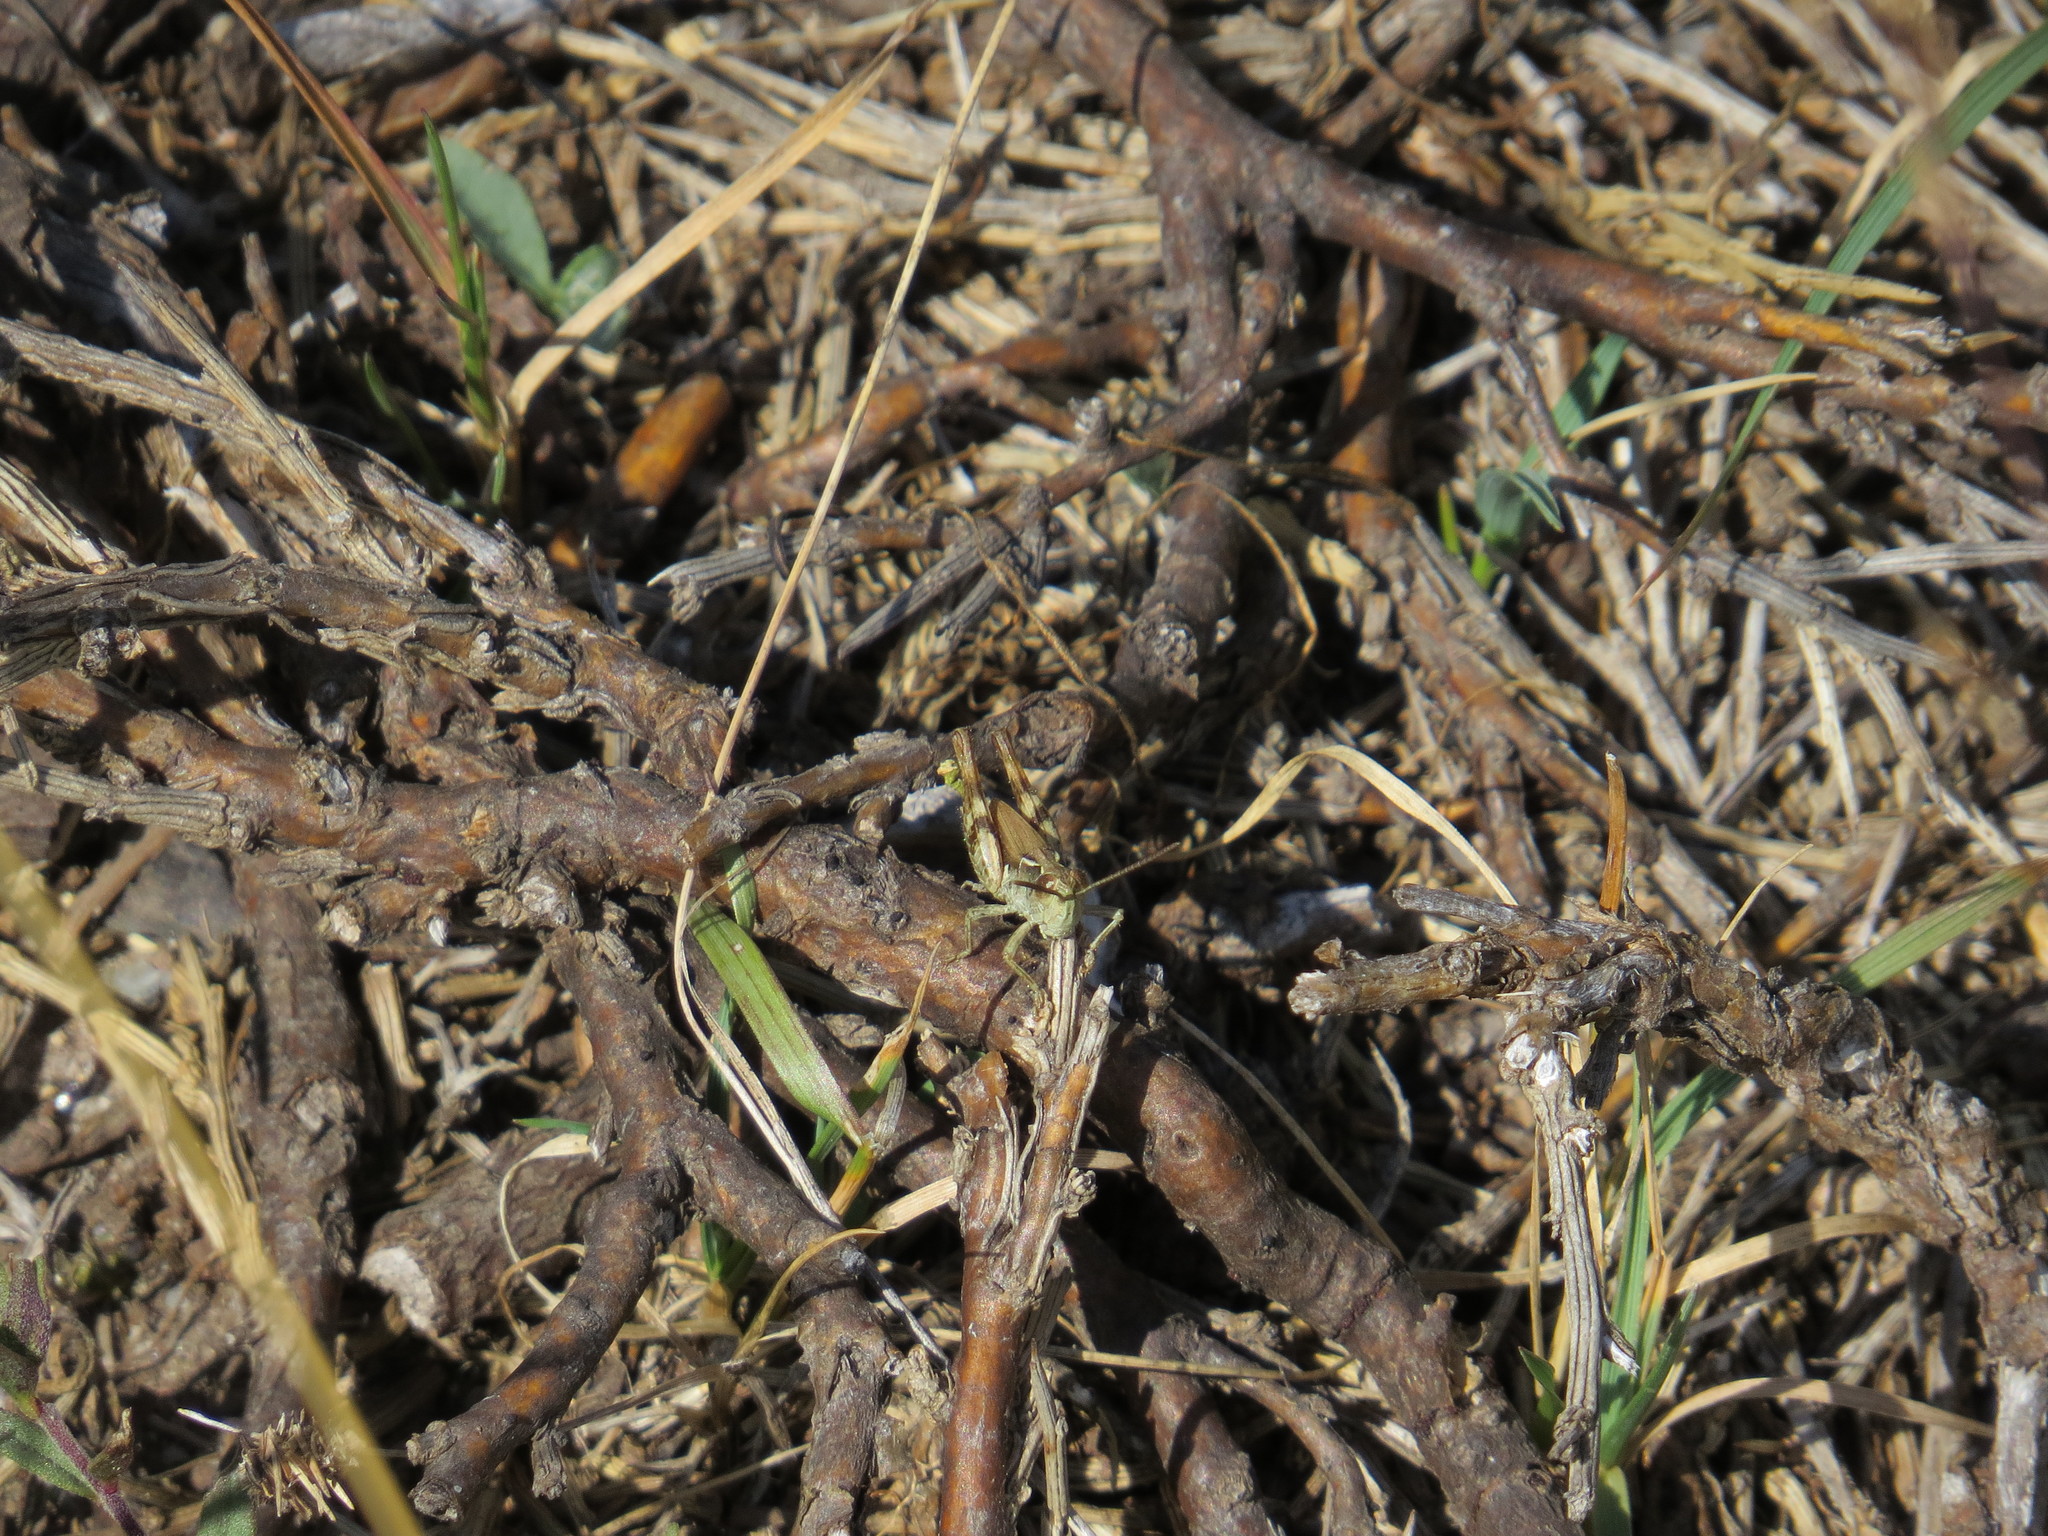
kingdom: Animalia
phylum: Arthropoda
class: Insecta
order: Orthoptera
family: Acrididae
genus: Chorthippus
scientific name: Chorthippus corsicus
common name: Corsican grasshopper
